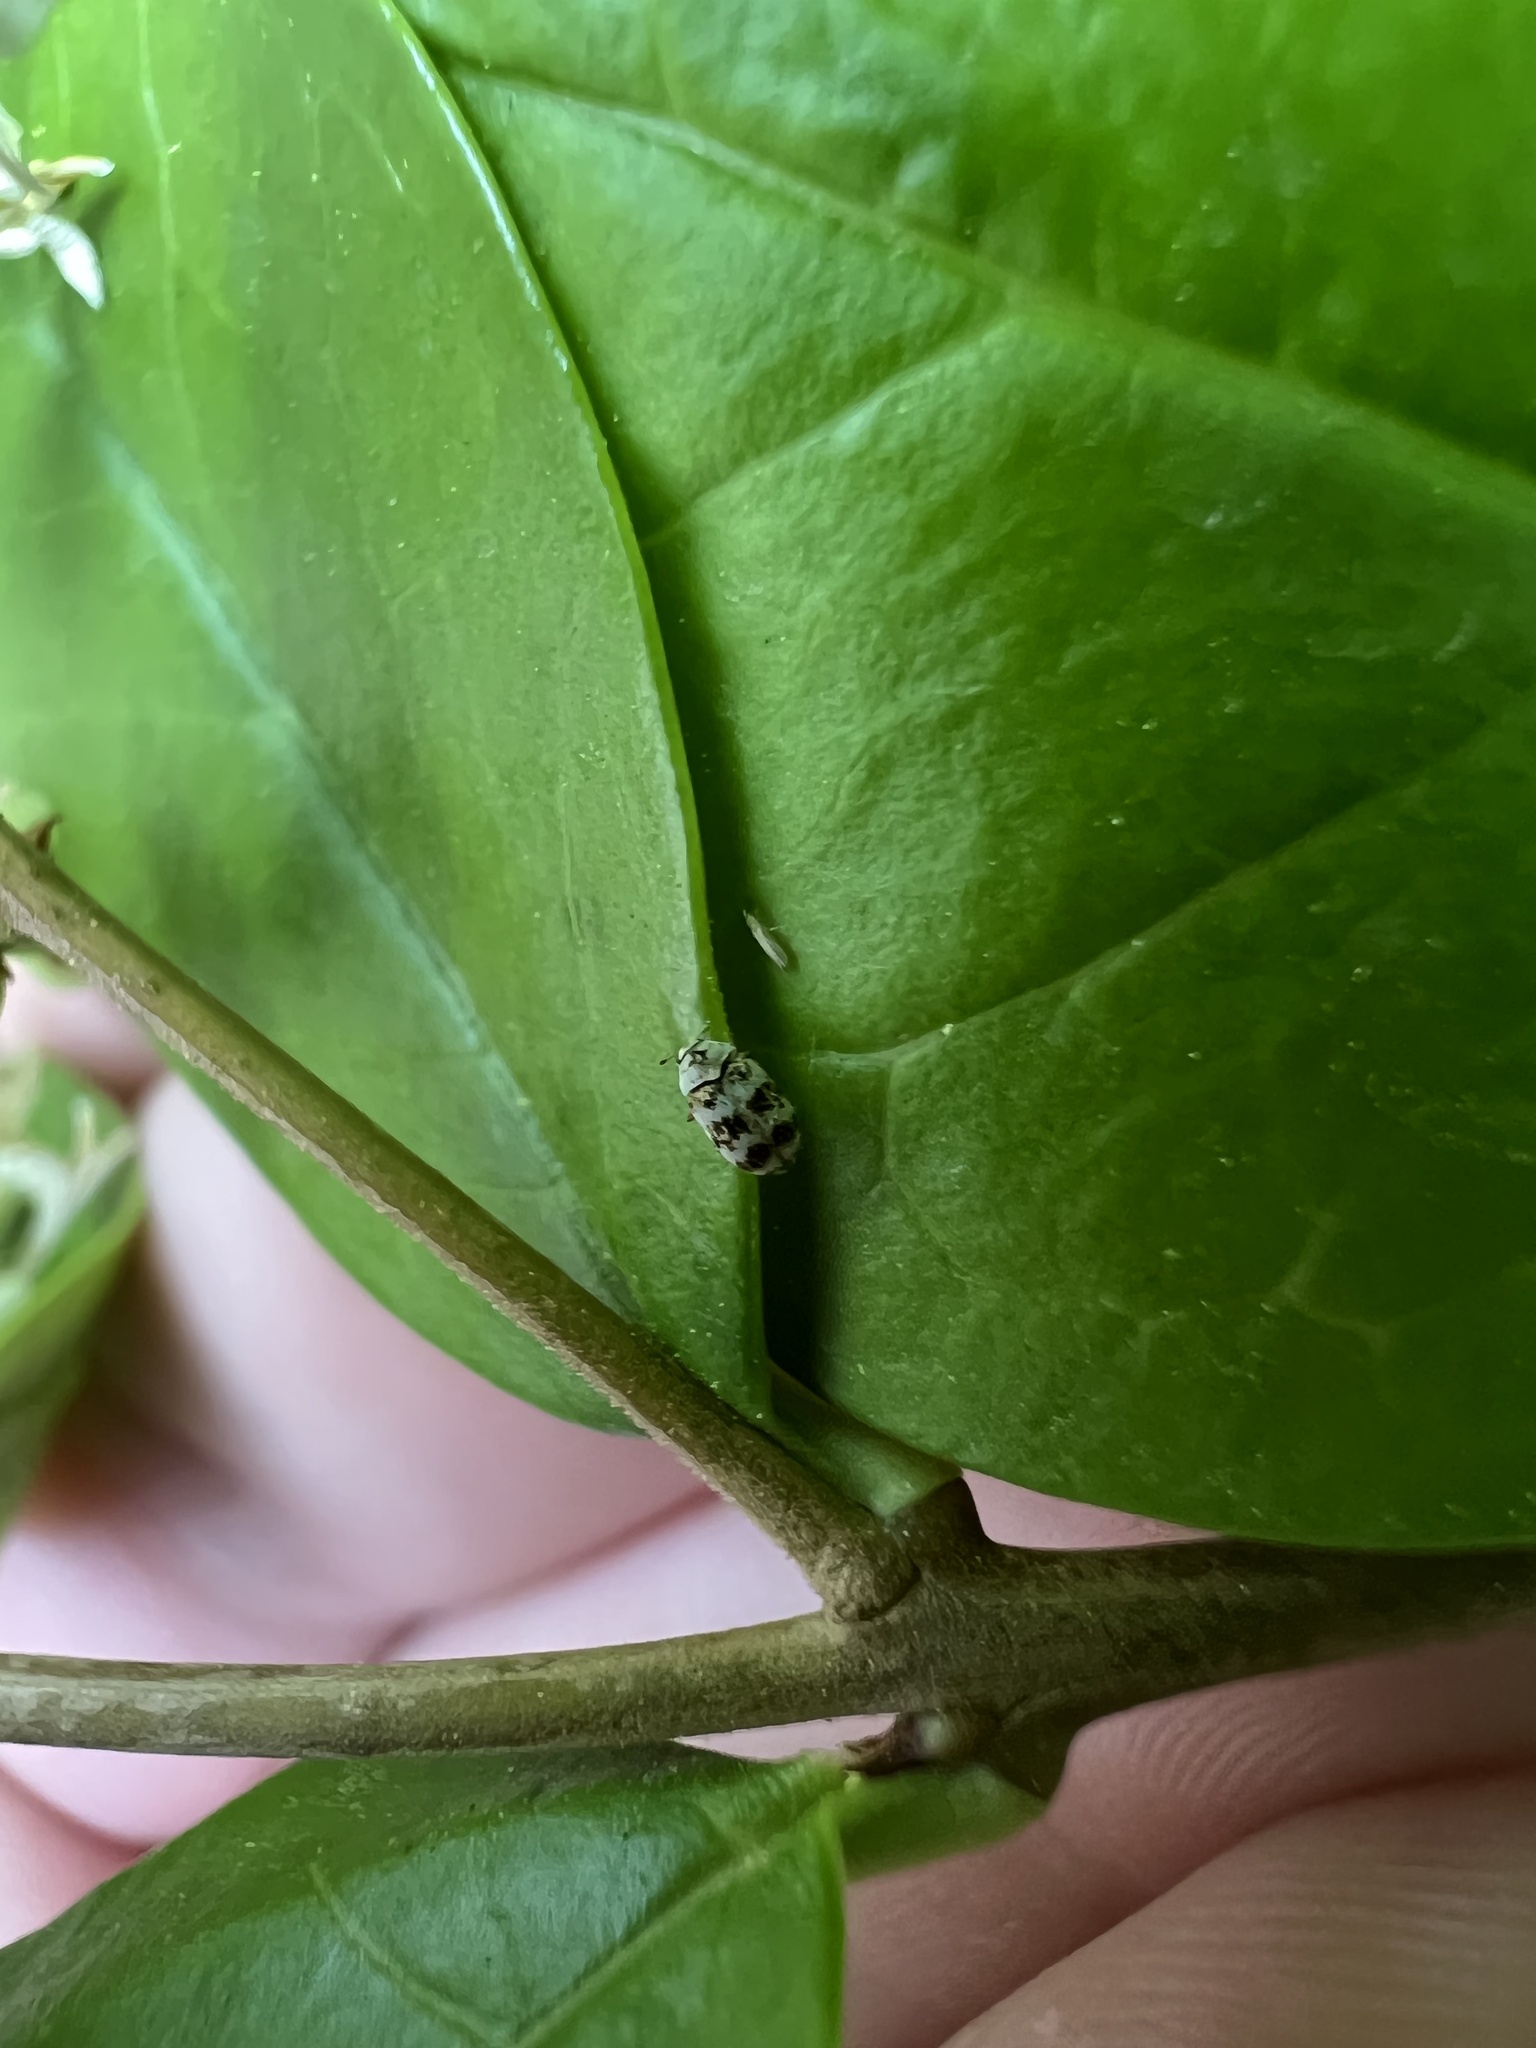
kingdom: Animalia
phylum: Arthropoda
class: Insecta
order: Coleoptera
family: Dermestidae
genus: Anthrenus
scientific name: Anthrenus coloratus
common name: Auger beetle
